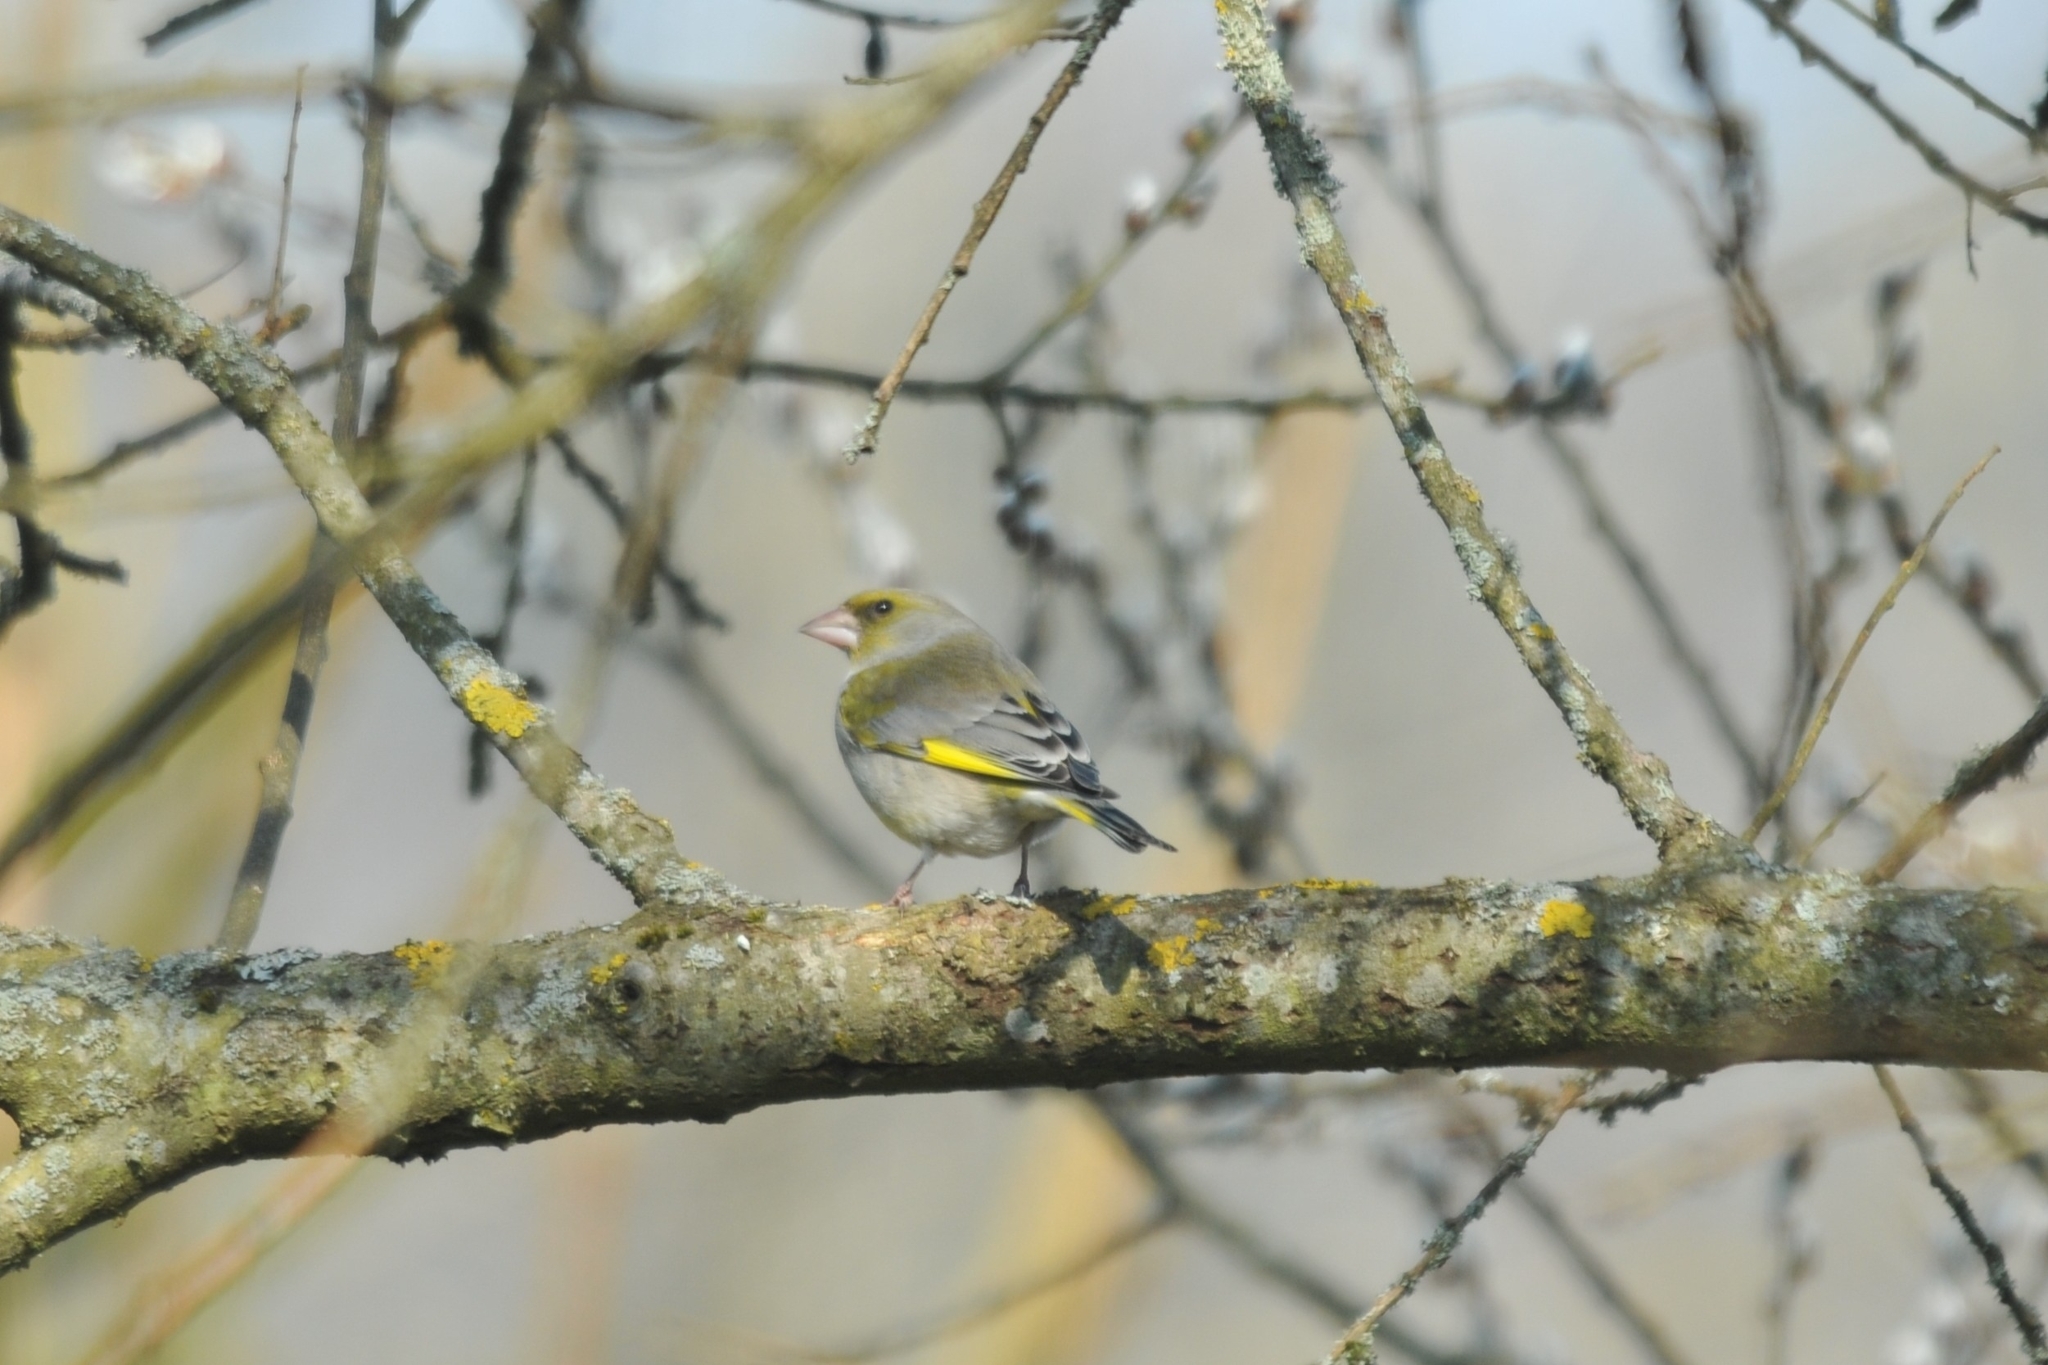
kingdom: Plantae
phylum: Tracheophyta
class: Liliopsida
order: Poales
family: Poaceae
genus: Chloris
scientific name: Chloris chloris
